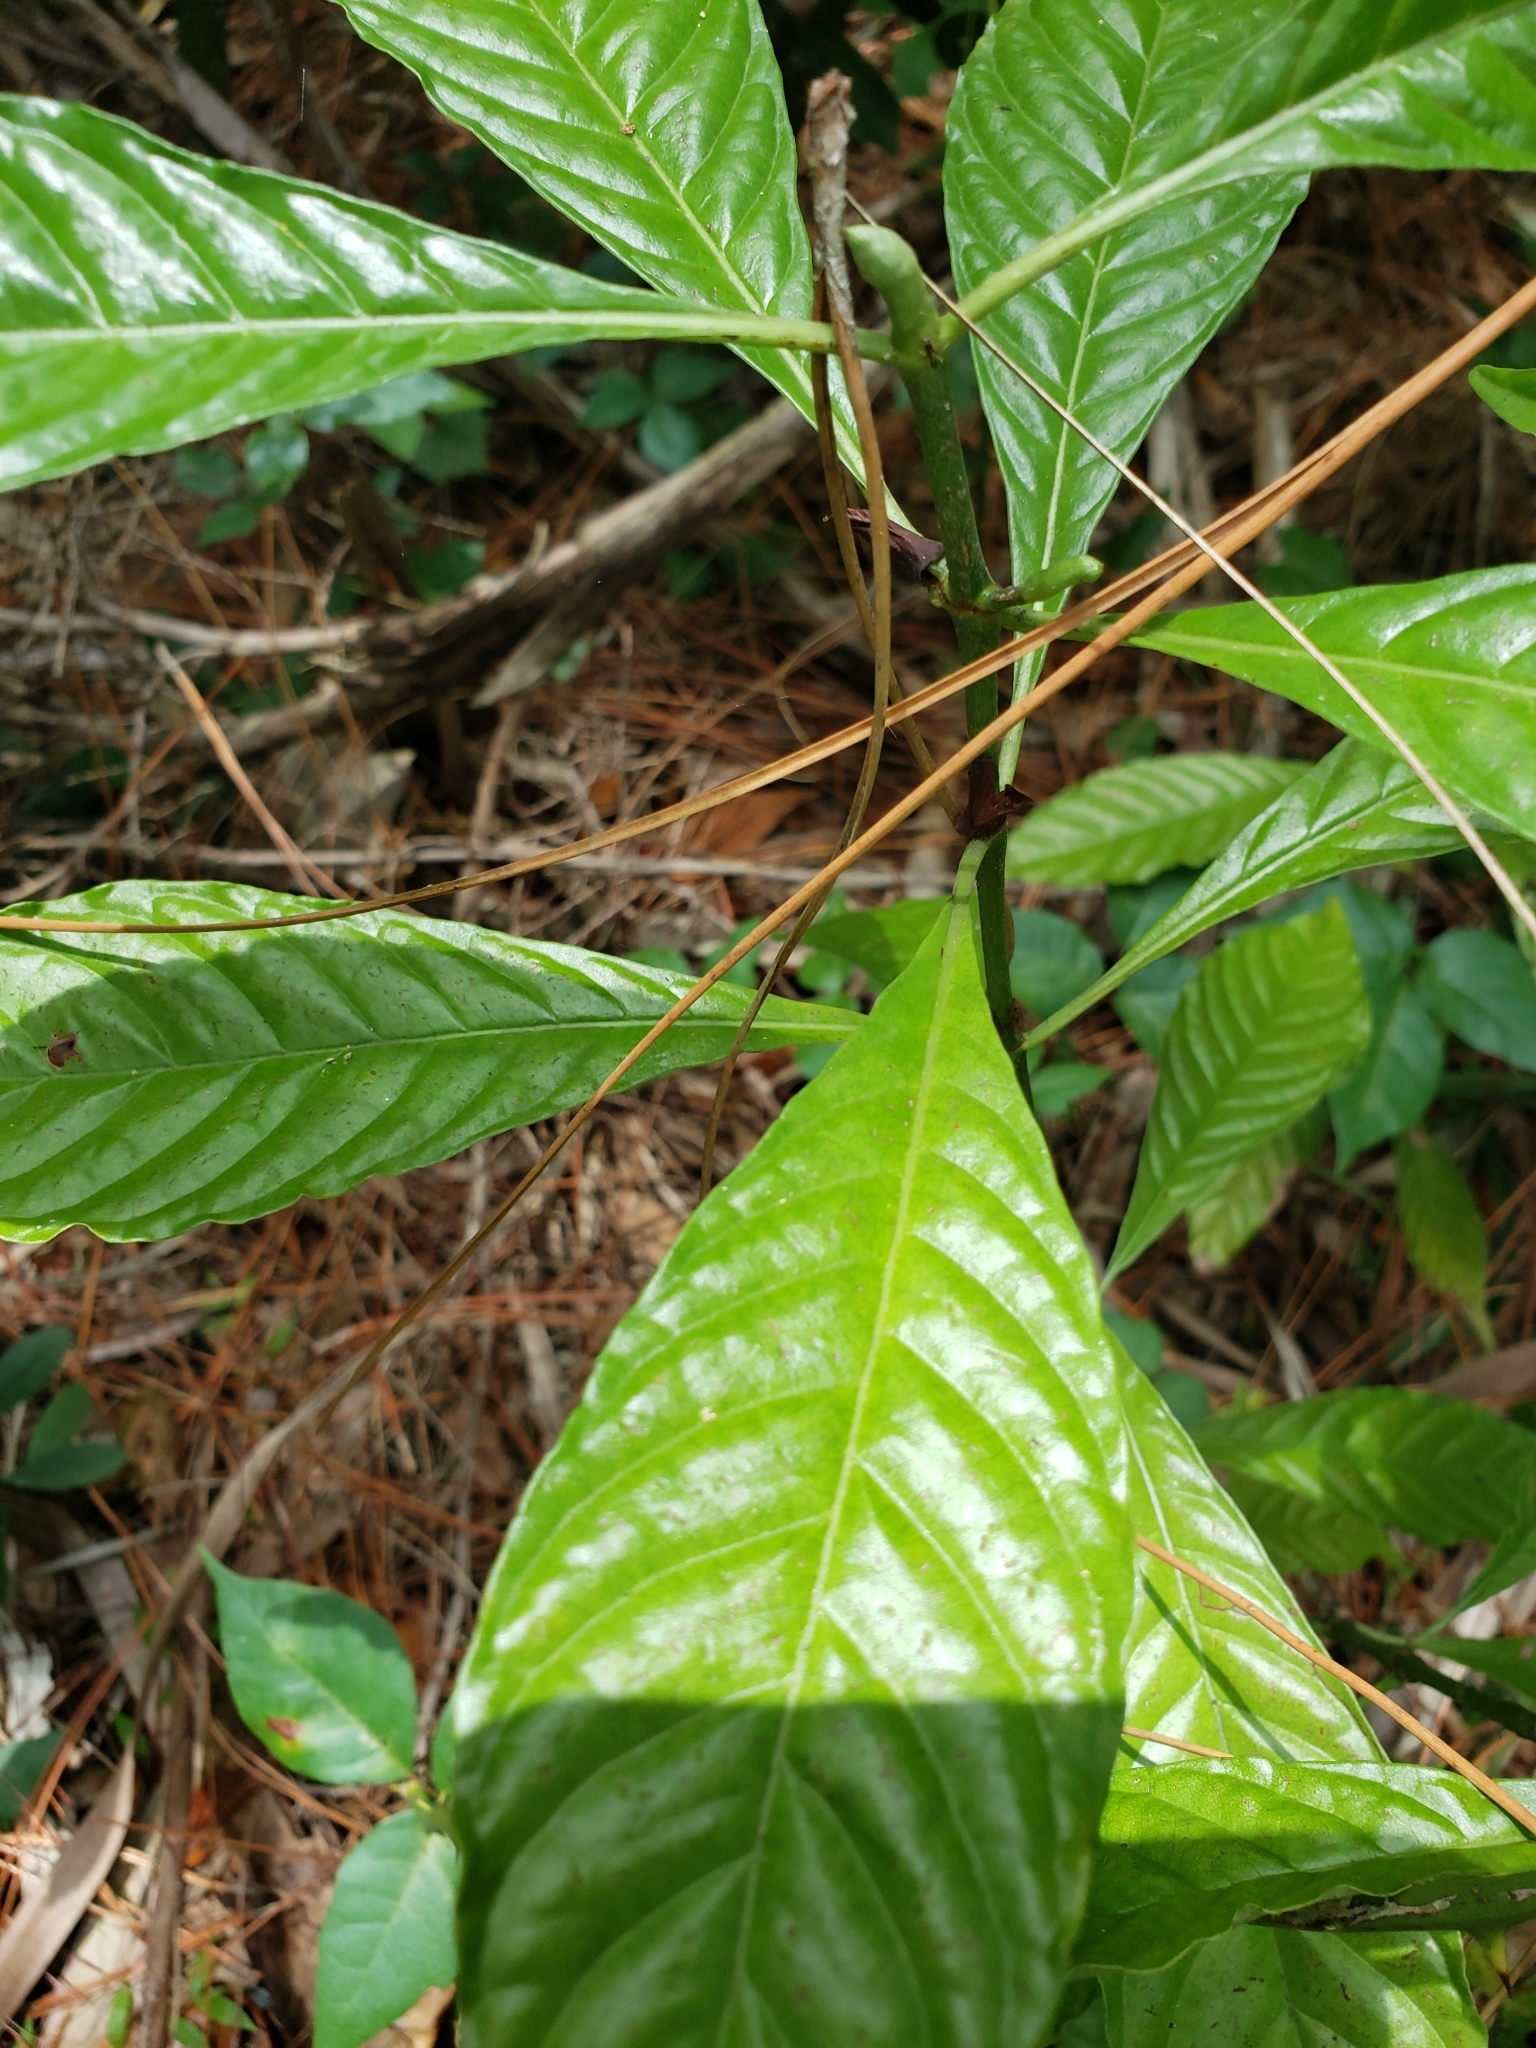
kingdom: Plantae
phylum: Tracheophyta
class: Magnoliopsida
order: Gentianales
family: Rubiaceae
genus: Psychotria
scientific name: Psychotria nervosa
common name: Bastard cankerberry
